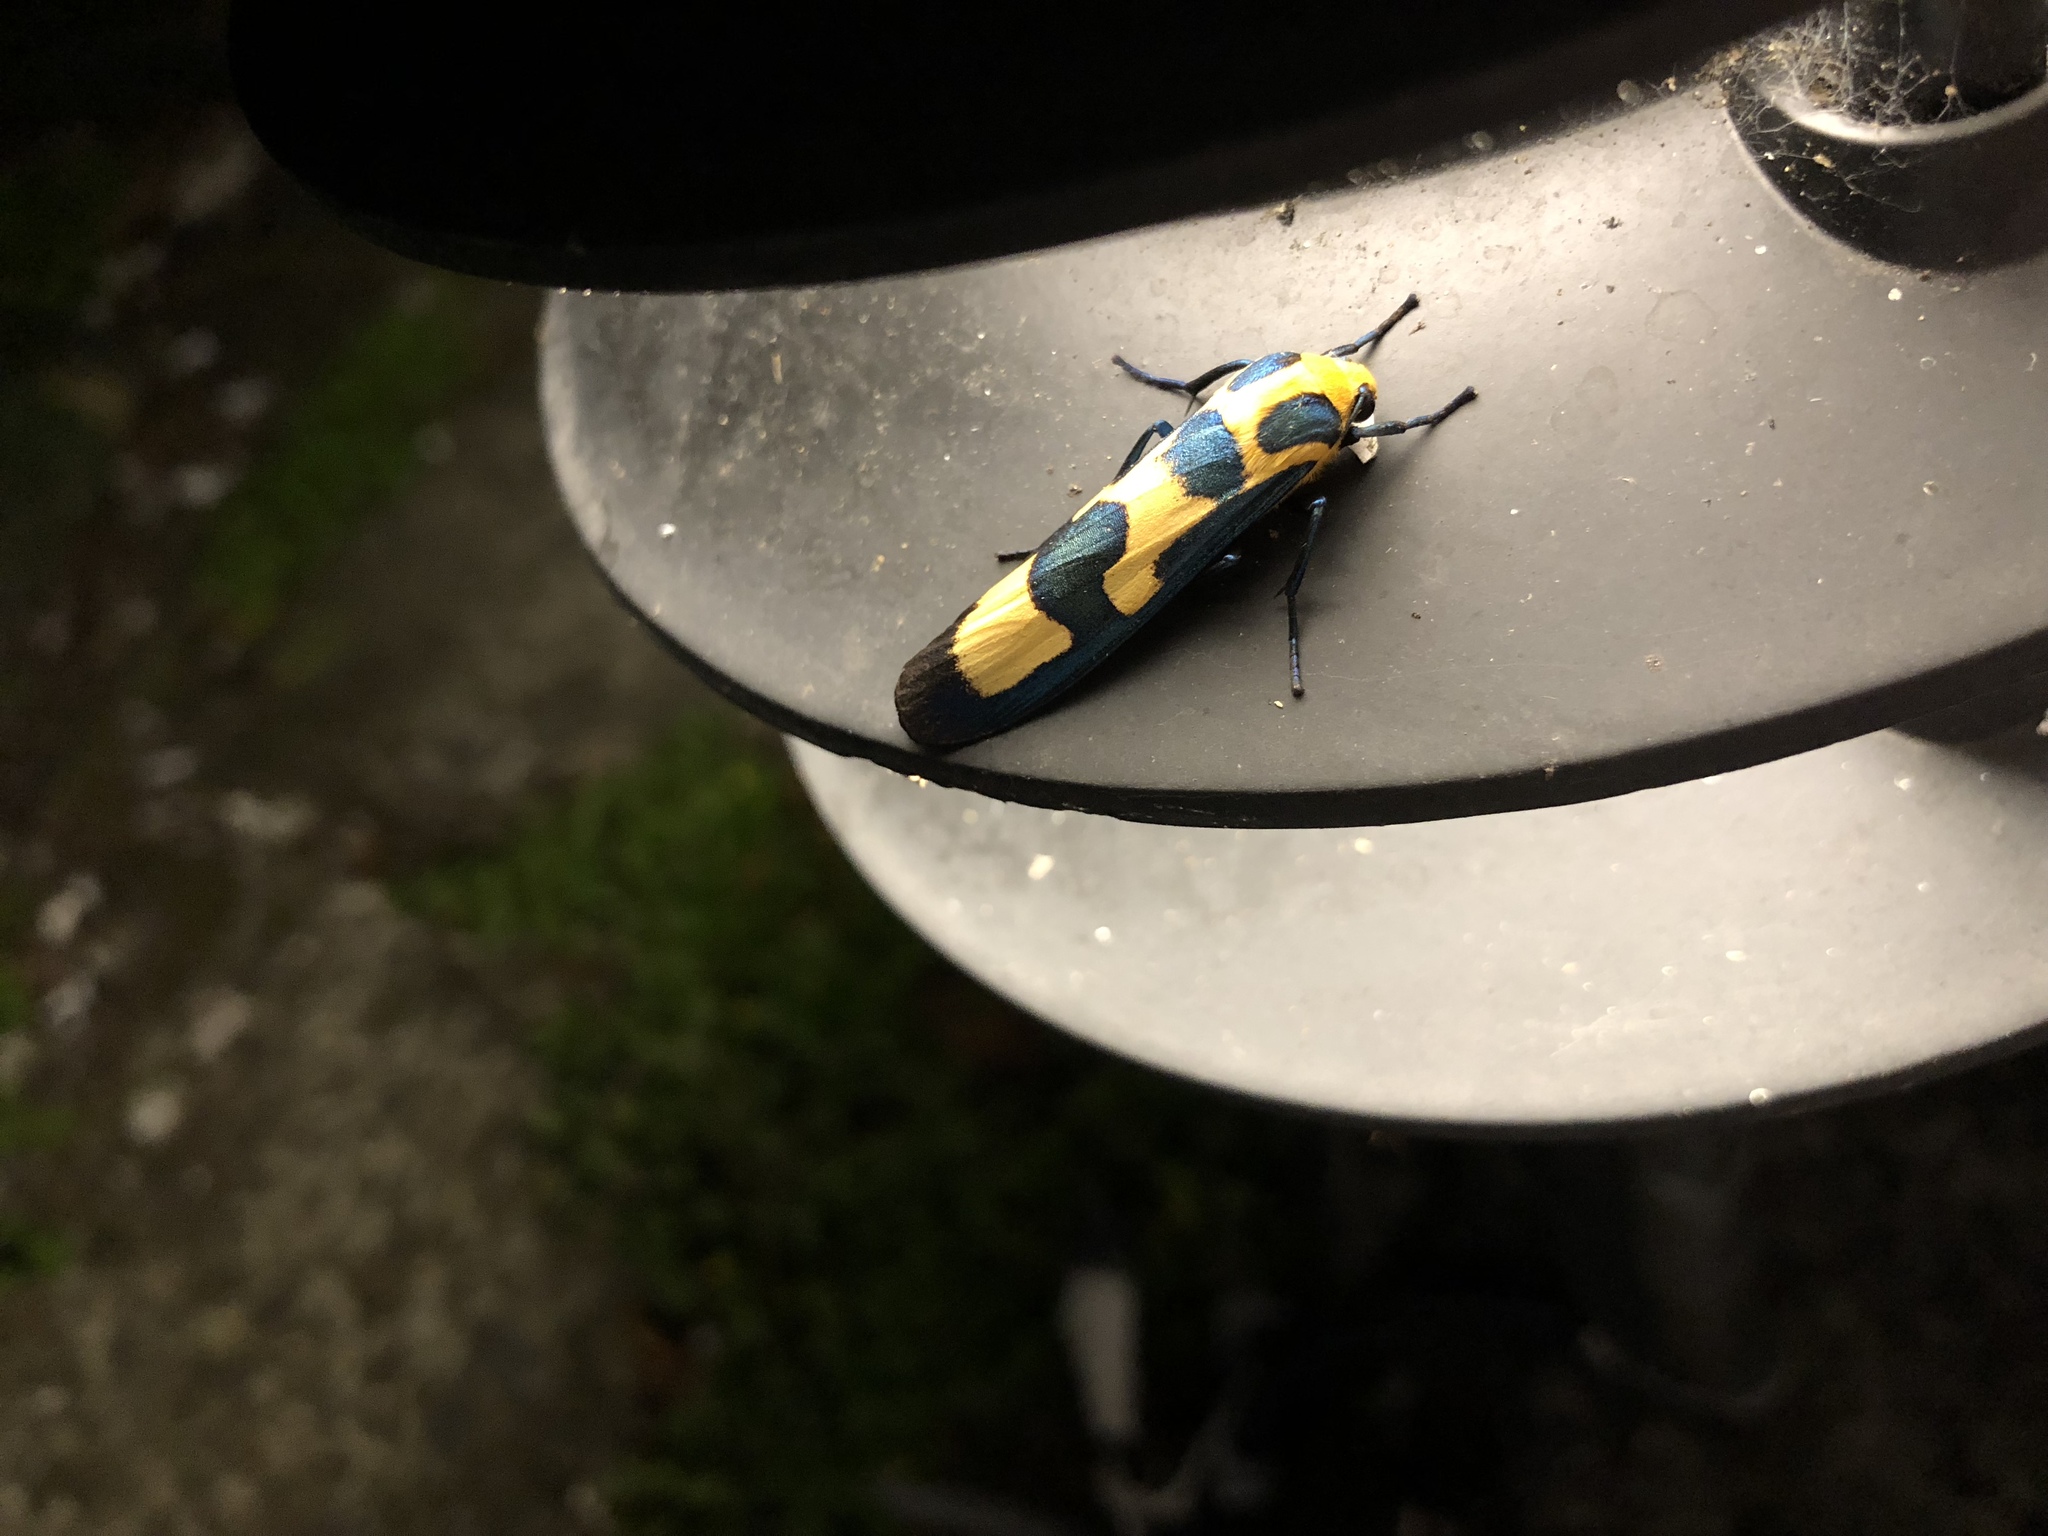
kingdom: Animalia
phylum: Arthropoda
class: Insecta
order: Lepidoptera
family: Erebidae
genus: Chrysaeglia
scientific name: Chrysaeglia magnifica
